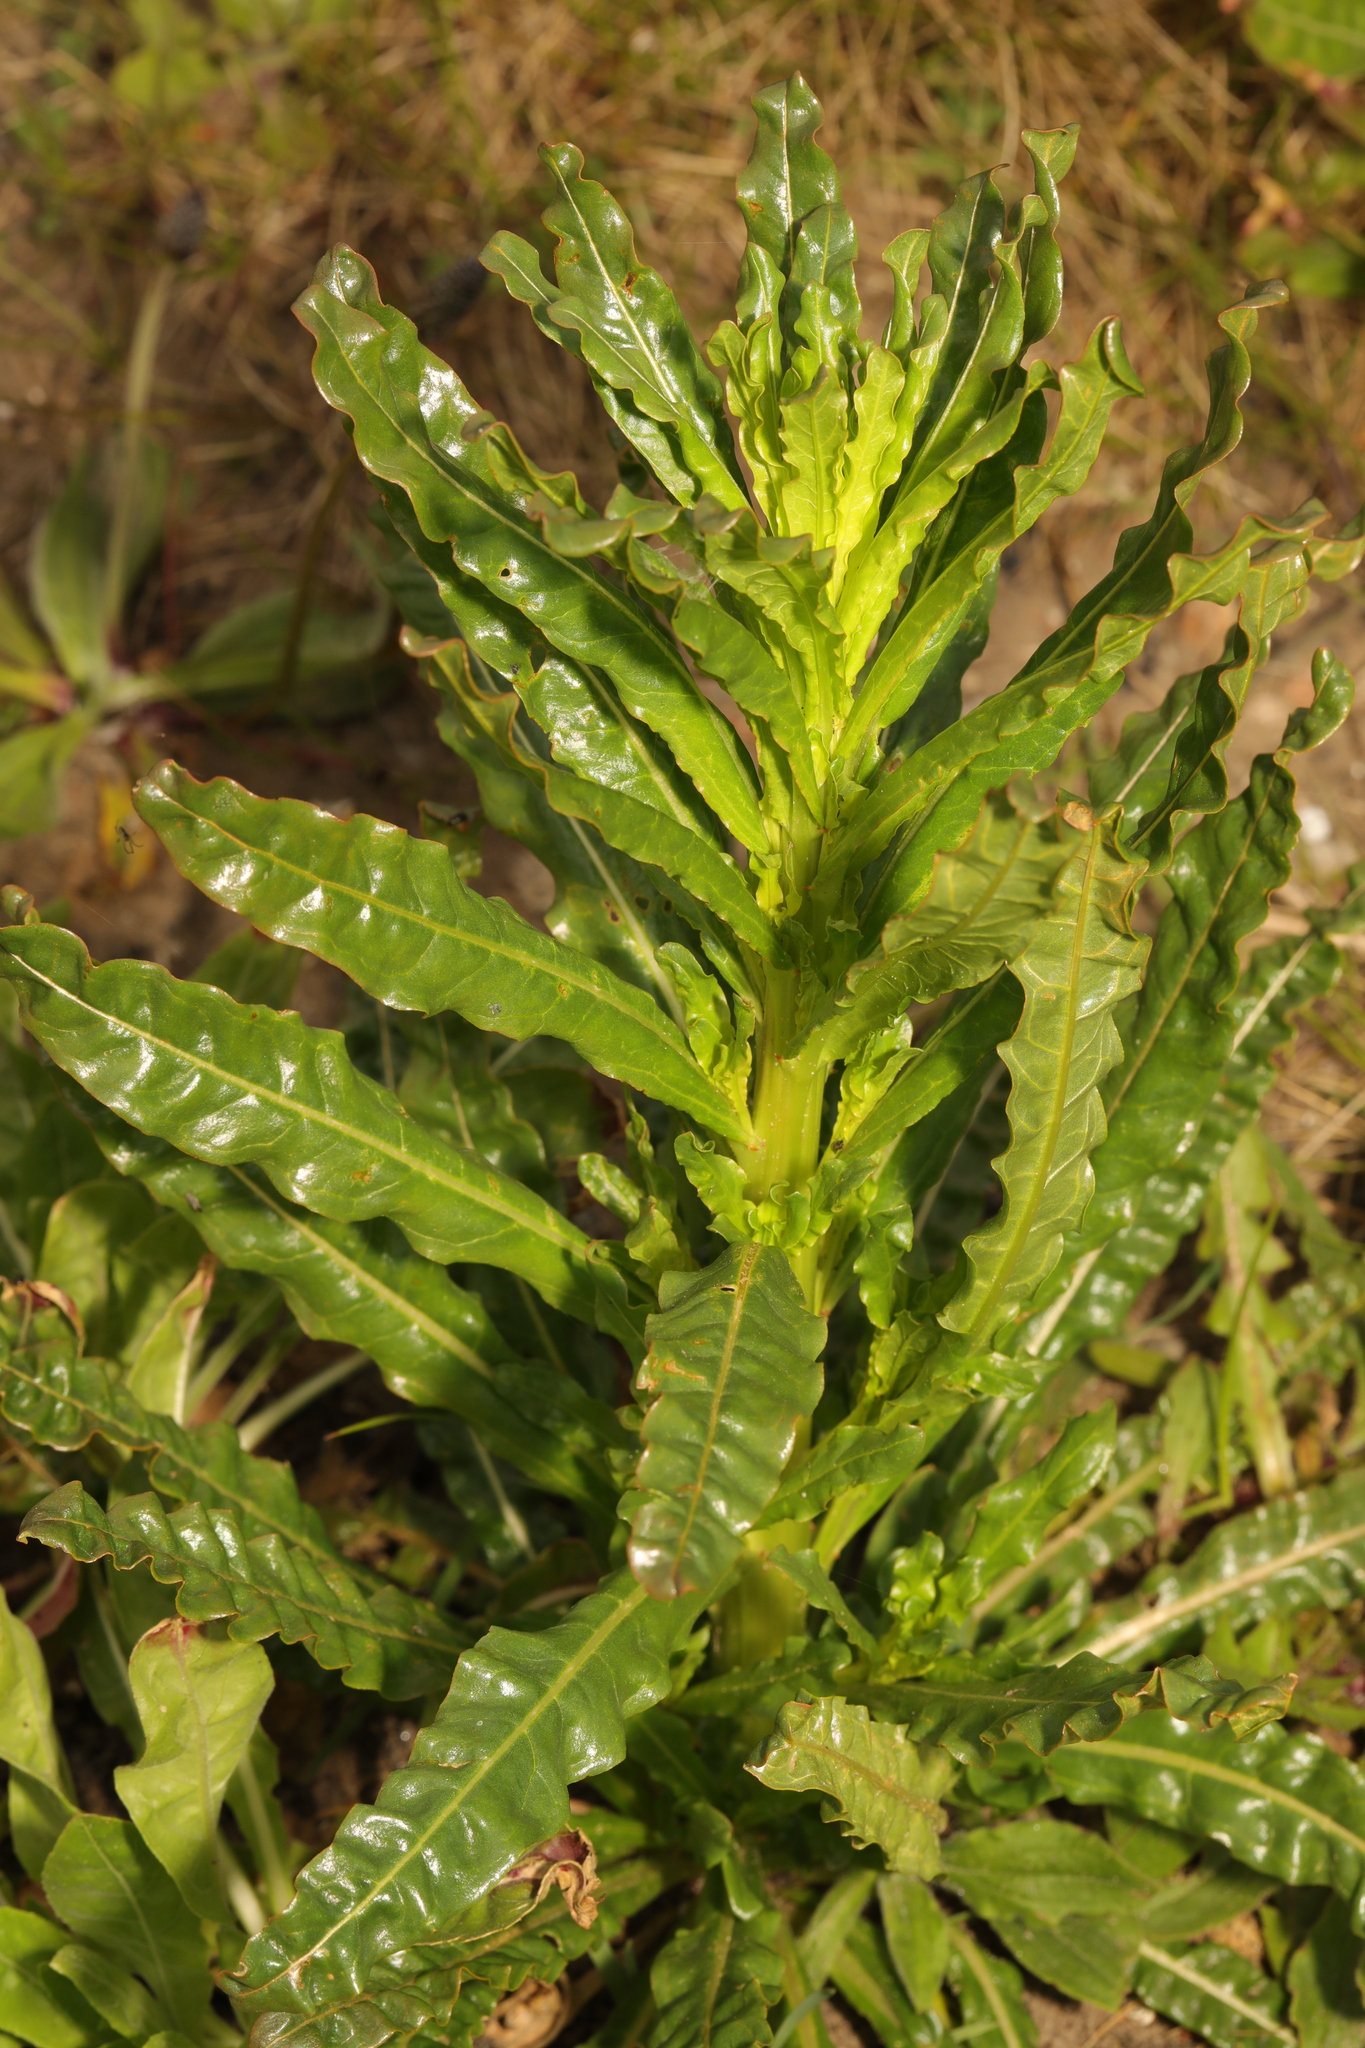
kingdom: Plantae
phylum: Tracheophyta
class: Magnoliopsida
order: Brassicales
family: Resedaceae
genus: Reseda
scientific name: Reseda luteola
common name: Weld
